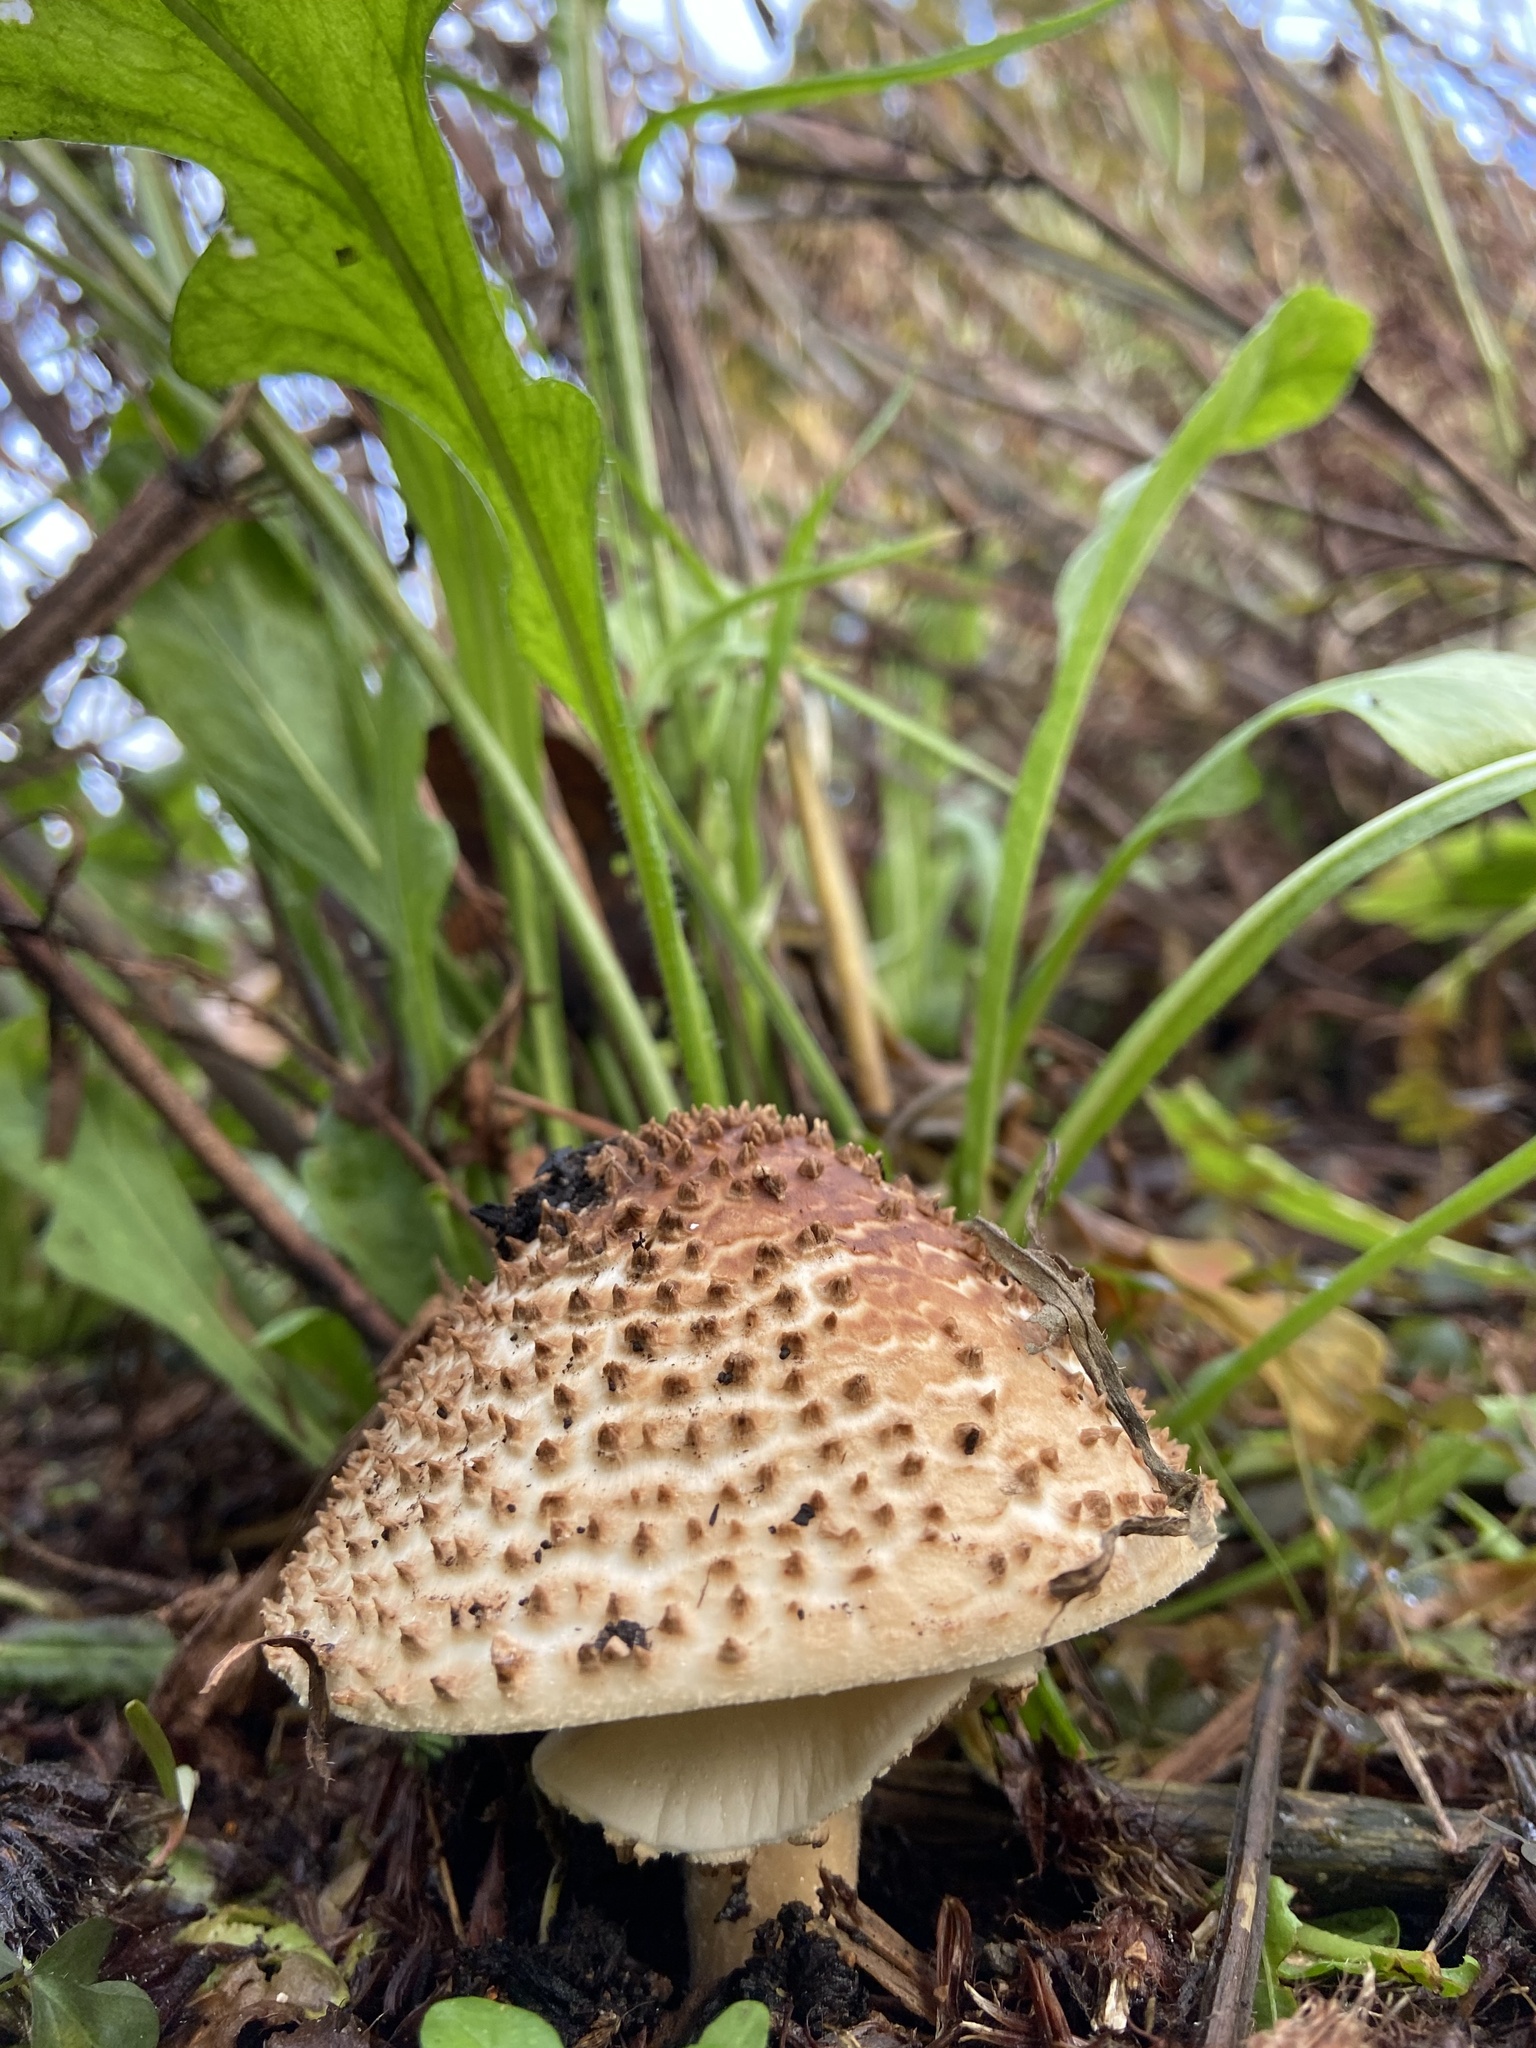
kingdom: Fungi
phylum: Basidiomycota
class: Agaricomycetes
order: Agaricales
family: Agaricaceae
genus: Echinoderma
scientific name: Echinoderma asperum
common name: Freckled dapperling
